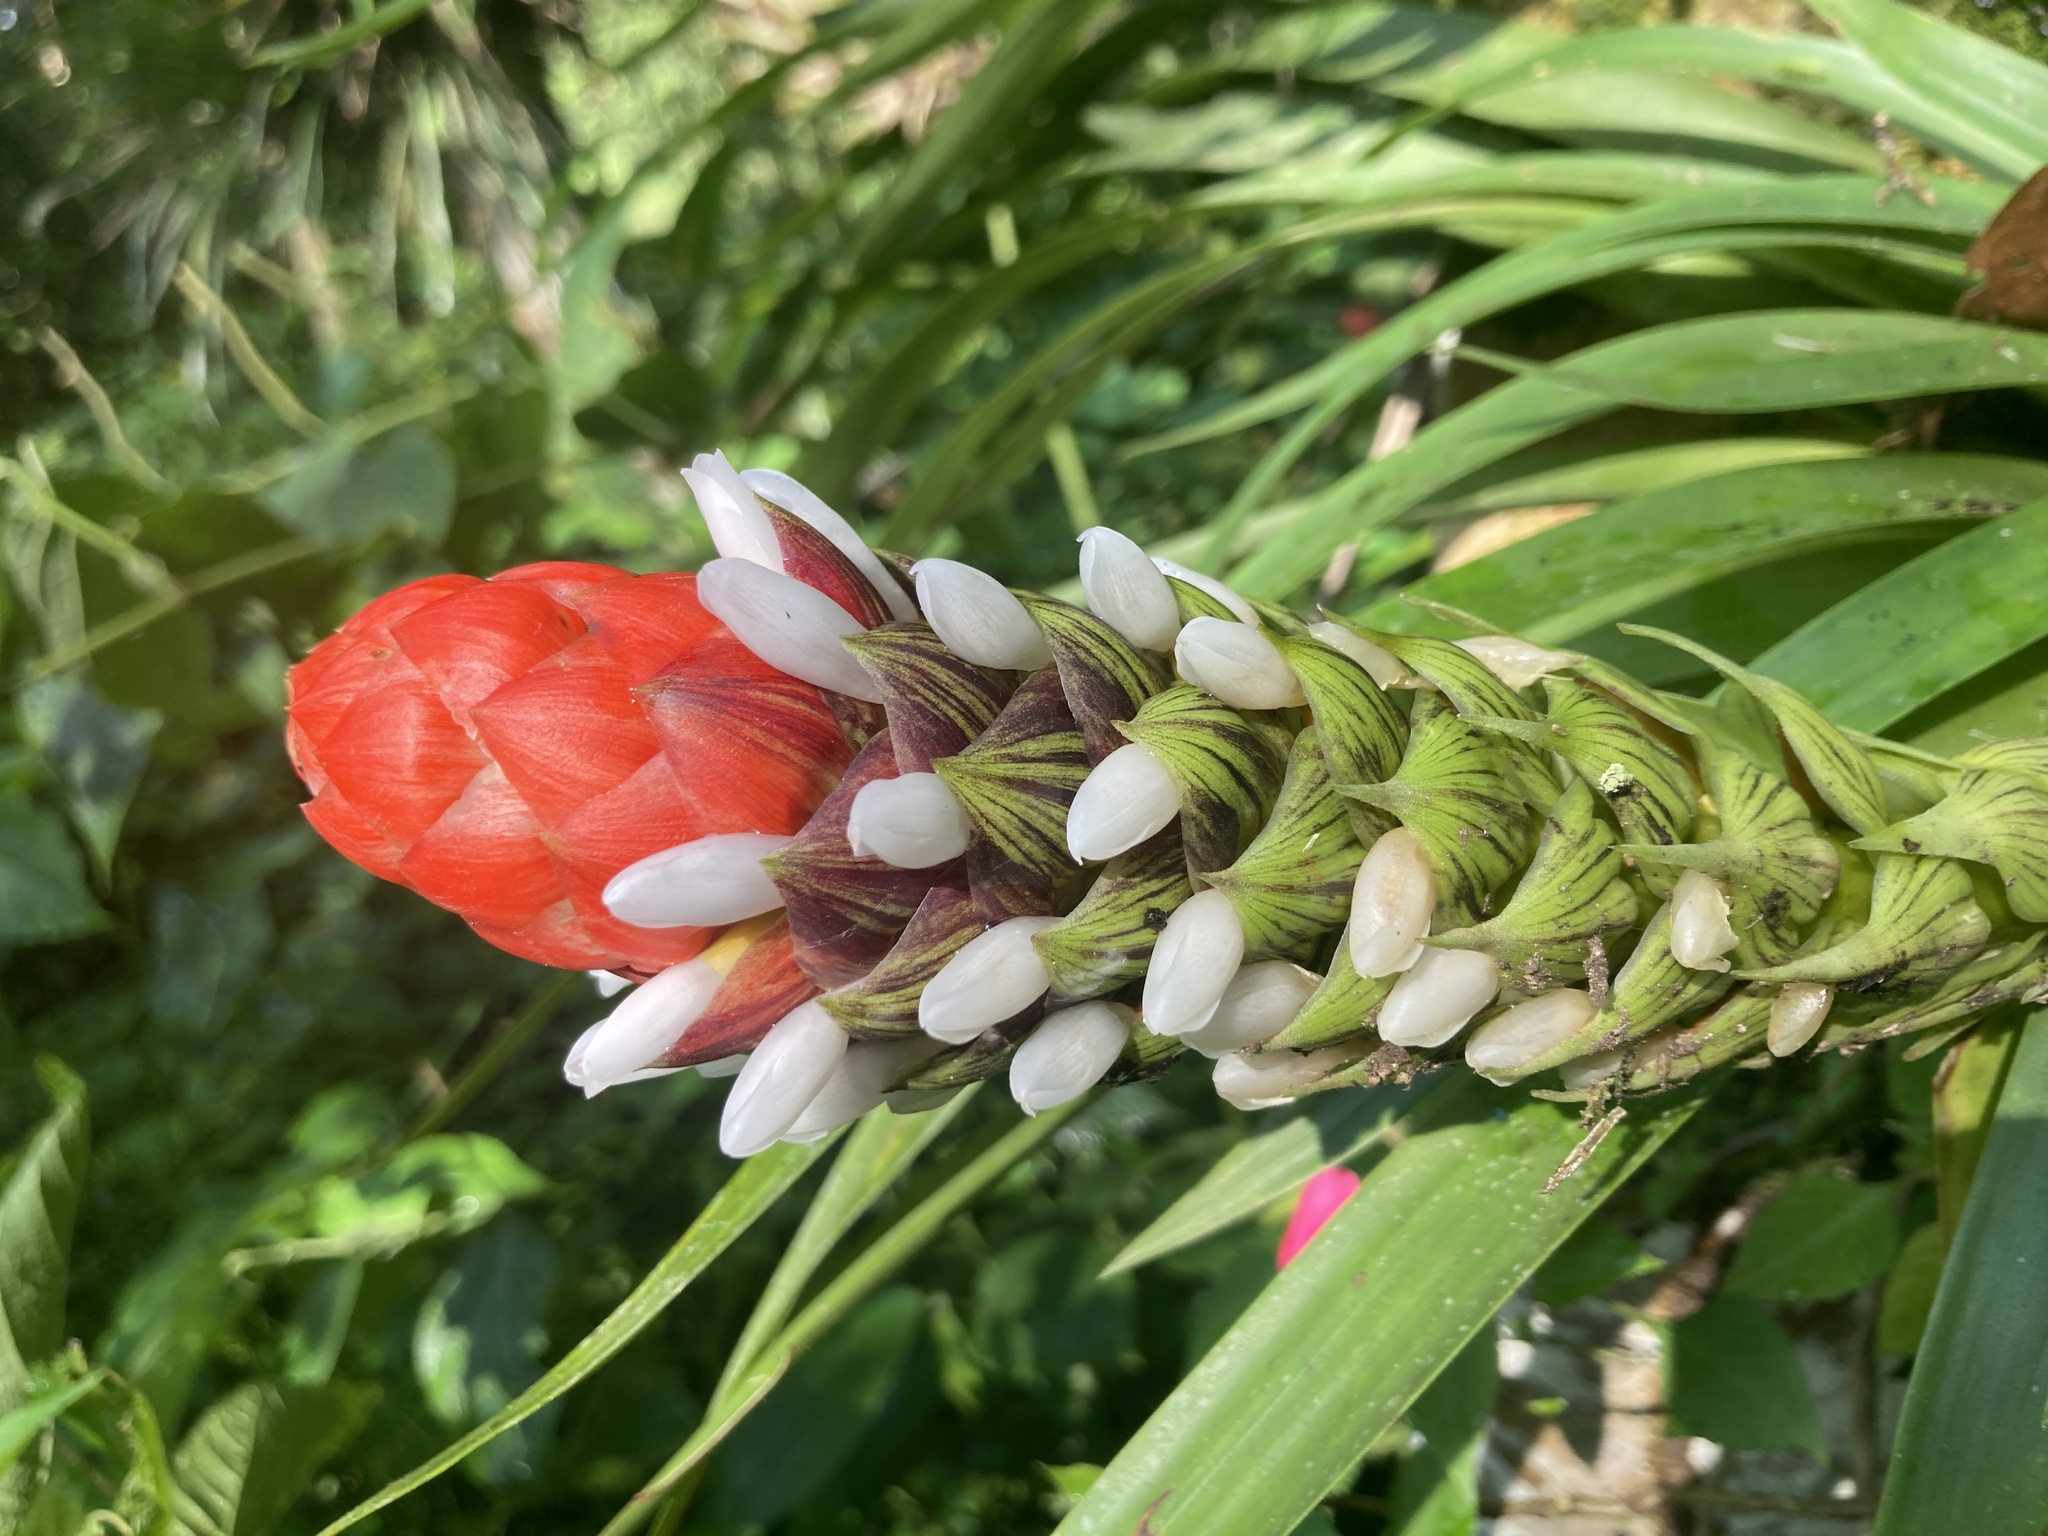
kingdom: Plantae
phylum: Tracheophyta
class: Liliopsida
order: Poales
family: Bromeliaceae
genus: Guzmania
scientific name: Guzmania monostachia
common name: West indian tufted airplant
